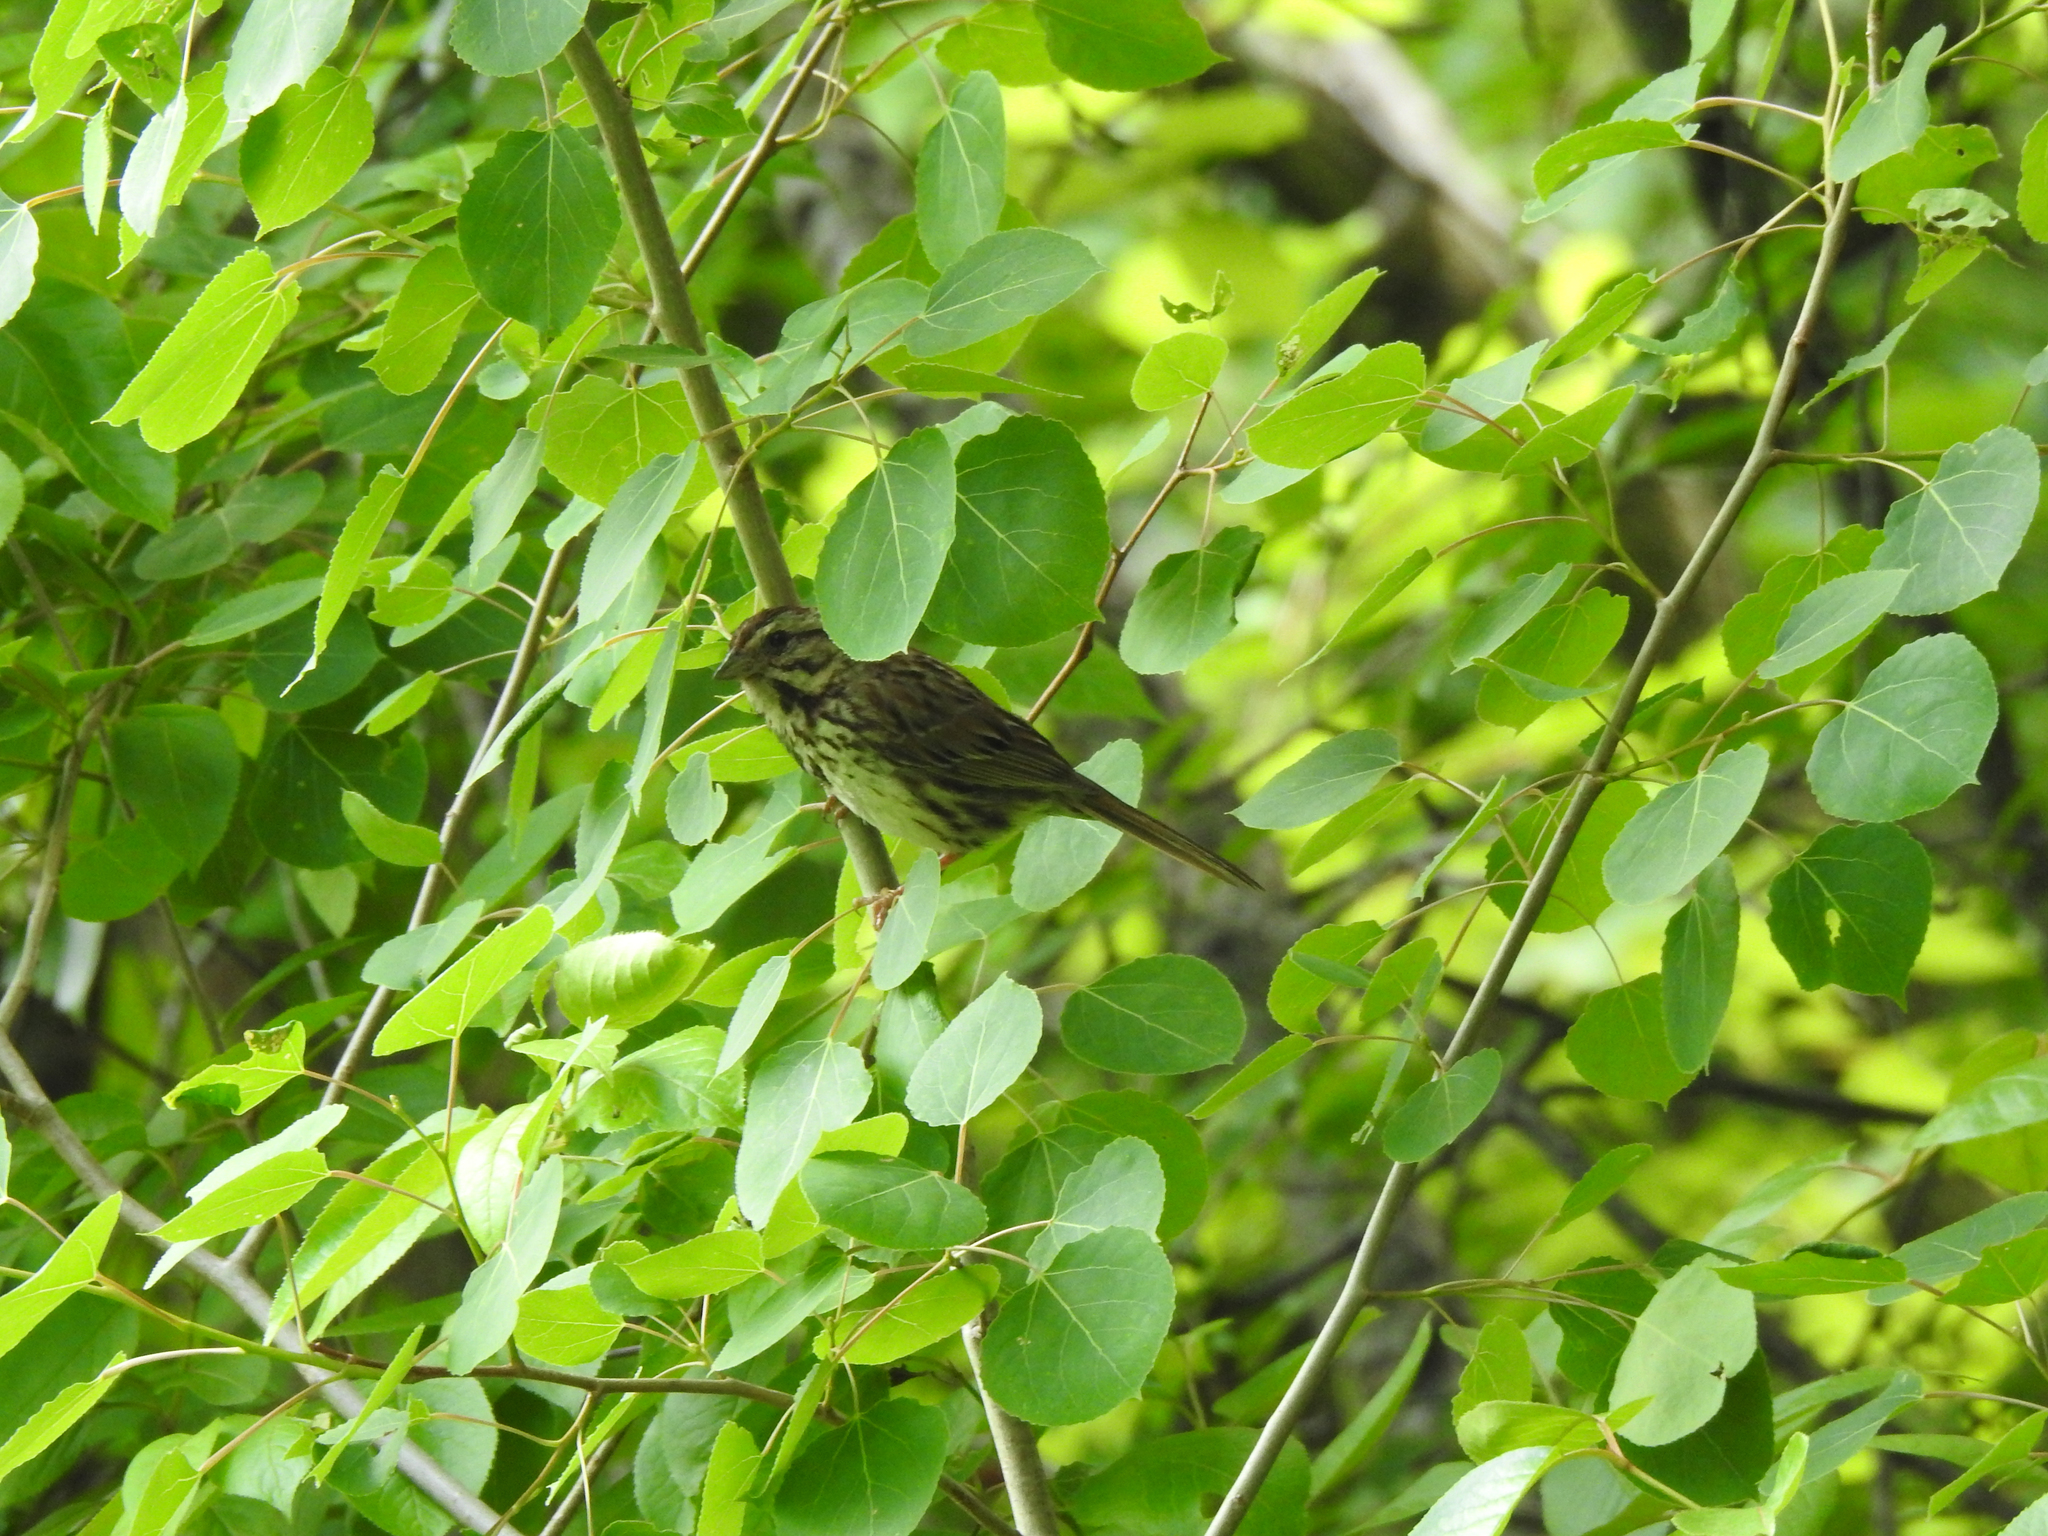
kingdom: Animalia
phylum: Chordata
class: Aves
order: Passeriformes
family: Passerellidae
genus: Melospiza
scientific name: Melospiza melodia
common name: Song sparrow
